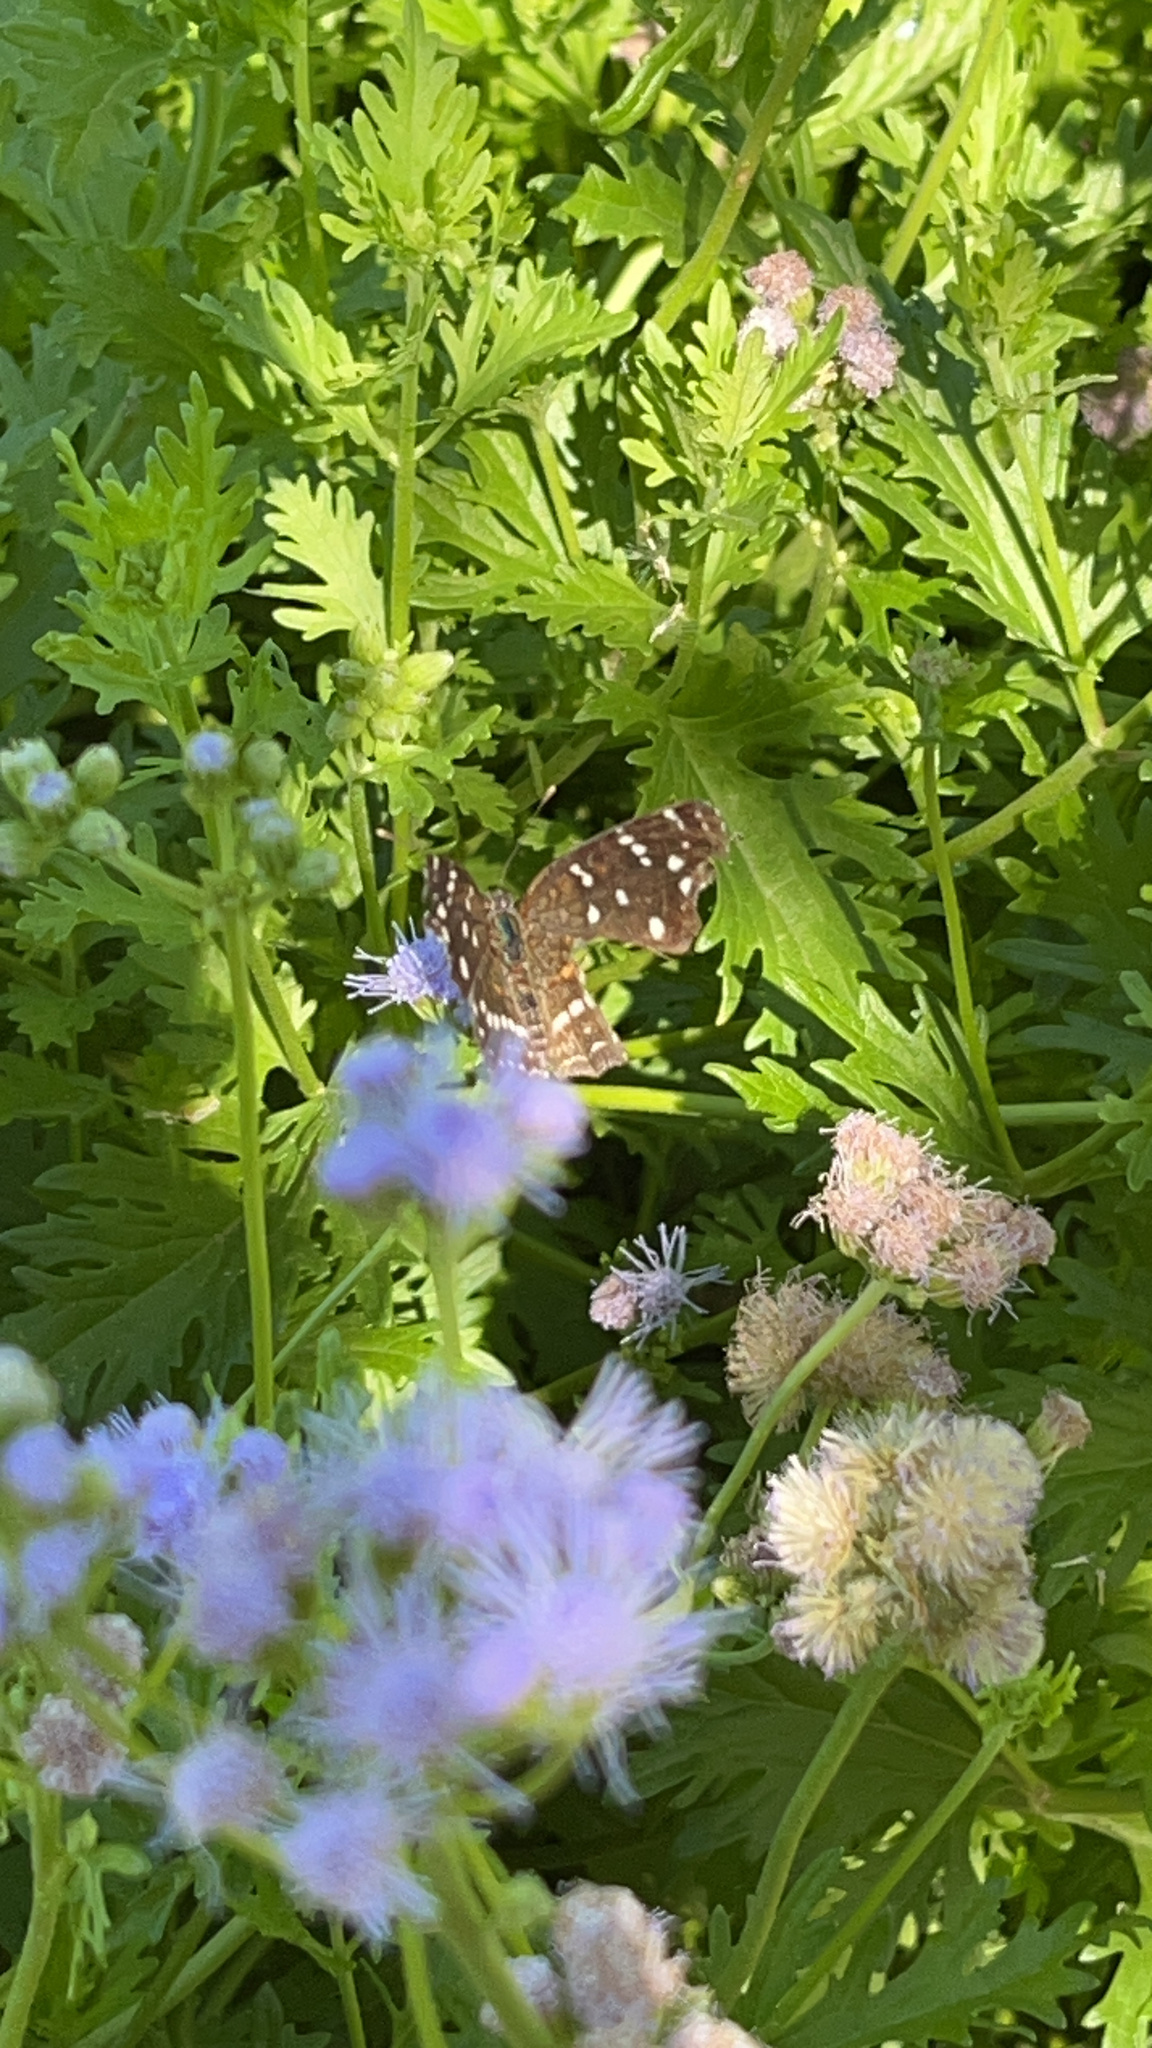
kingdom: Animalia
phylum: Arthropoda
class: Insecta
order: Lepidoptera
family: Nymphalidae
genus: Anthanassa
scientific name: Anthanassa texana
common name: Texan crescent
